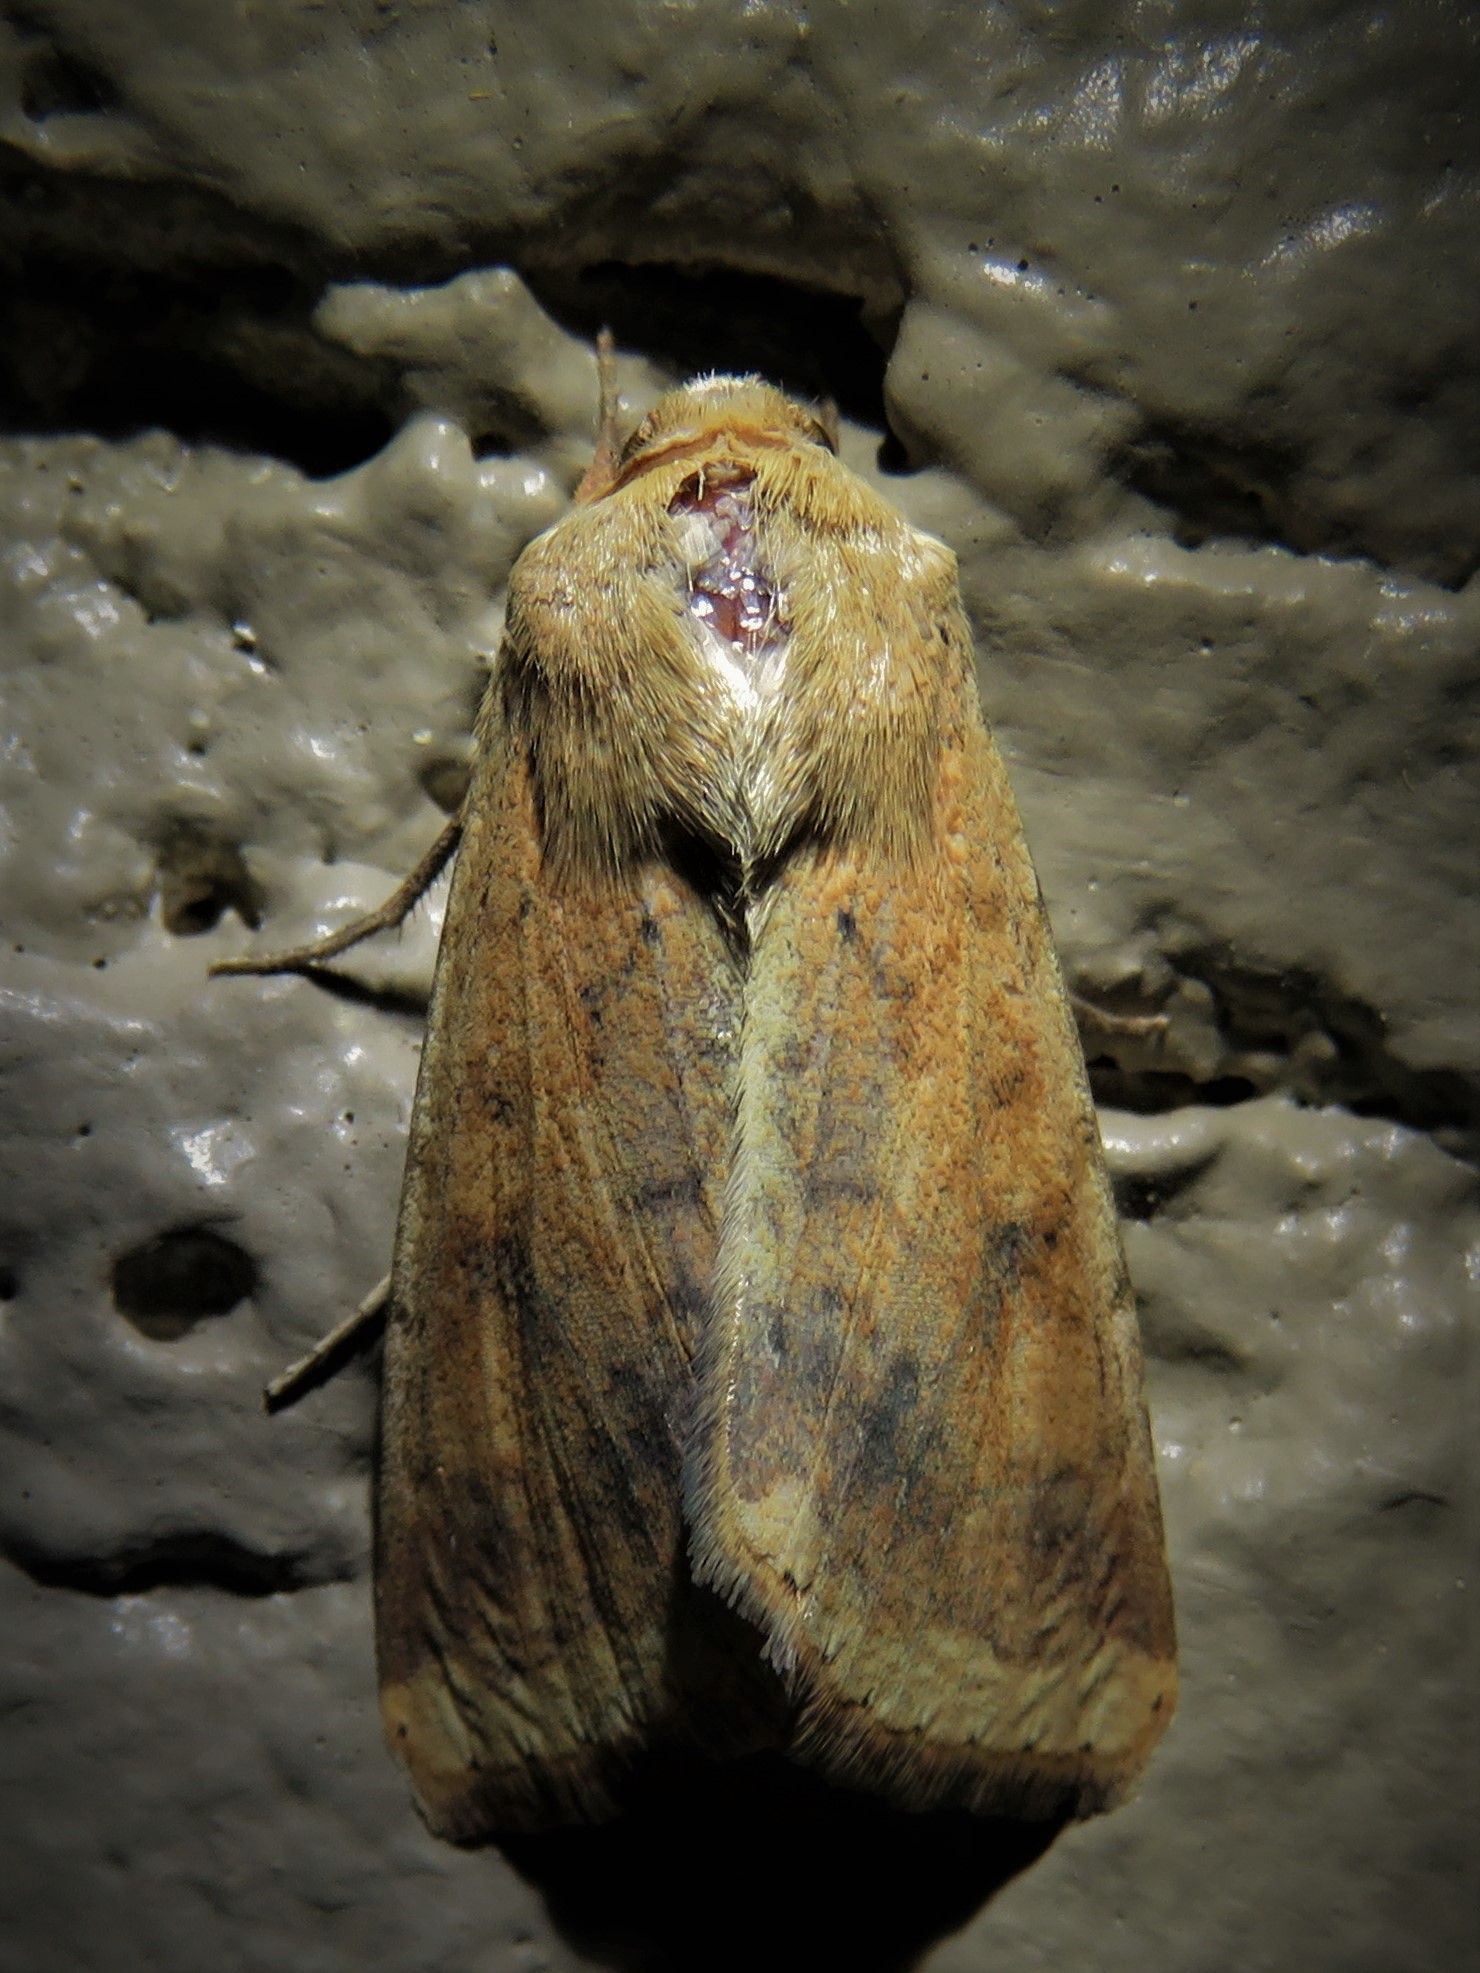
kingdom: Animalia
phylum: Arthropoda
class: Insecta
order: Lepidoptera
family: Noctuidae
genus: Helicoverpa
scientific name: Helicoverpa zea
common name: Bollworm
